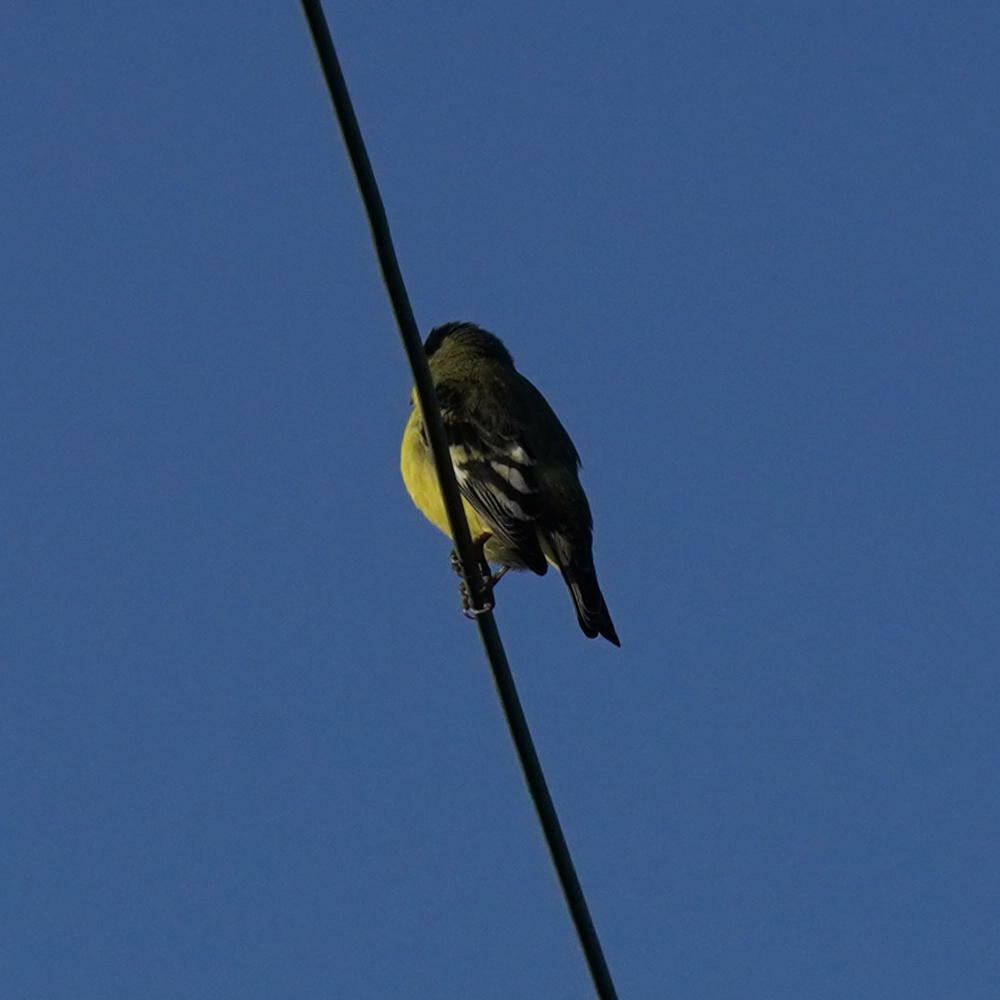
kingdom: Animalia
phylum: Chordata
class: Aves
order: Passeriformes
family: Fringillidae
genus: Spinus
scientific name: Spinus psaltria
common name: Lesser goldfinch
